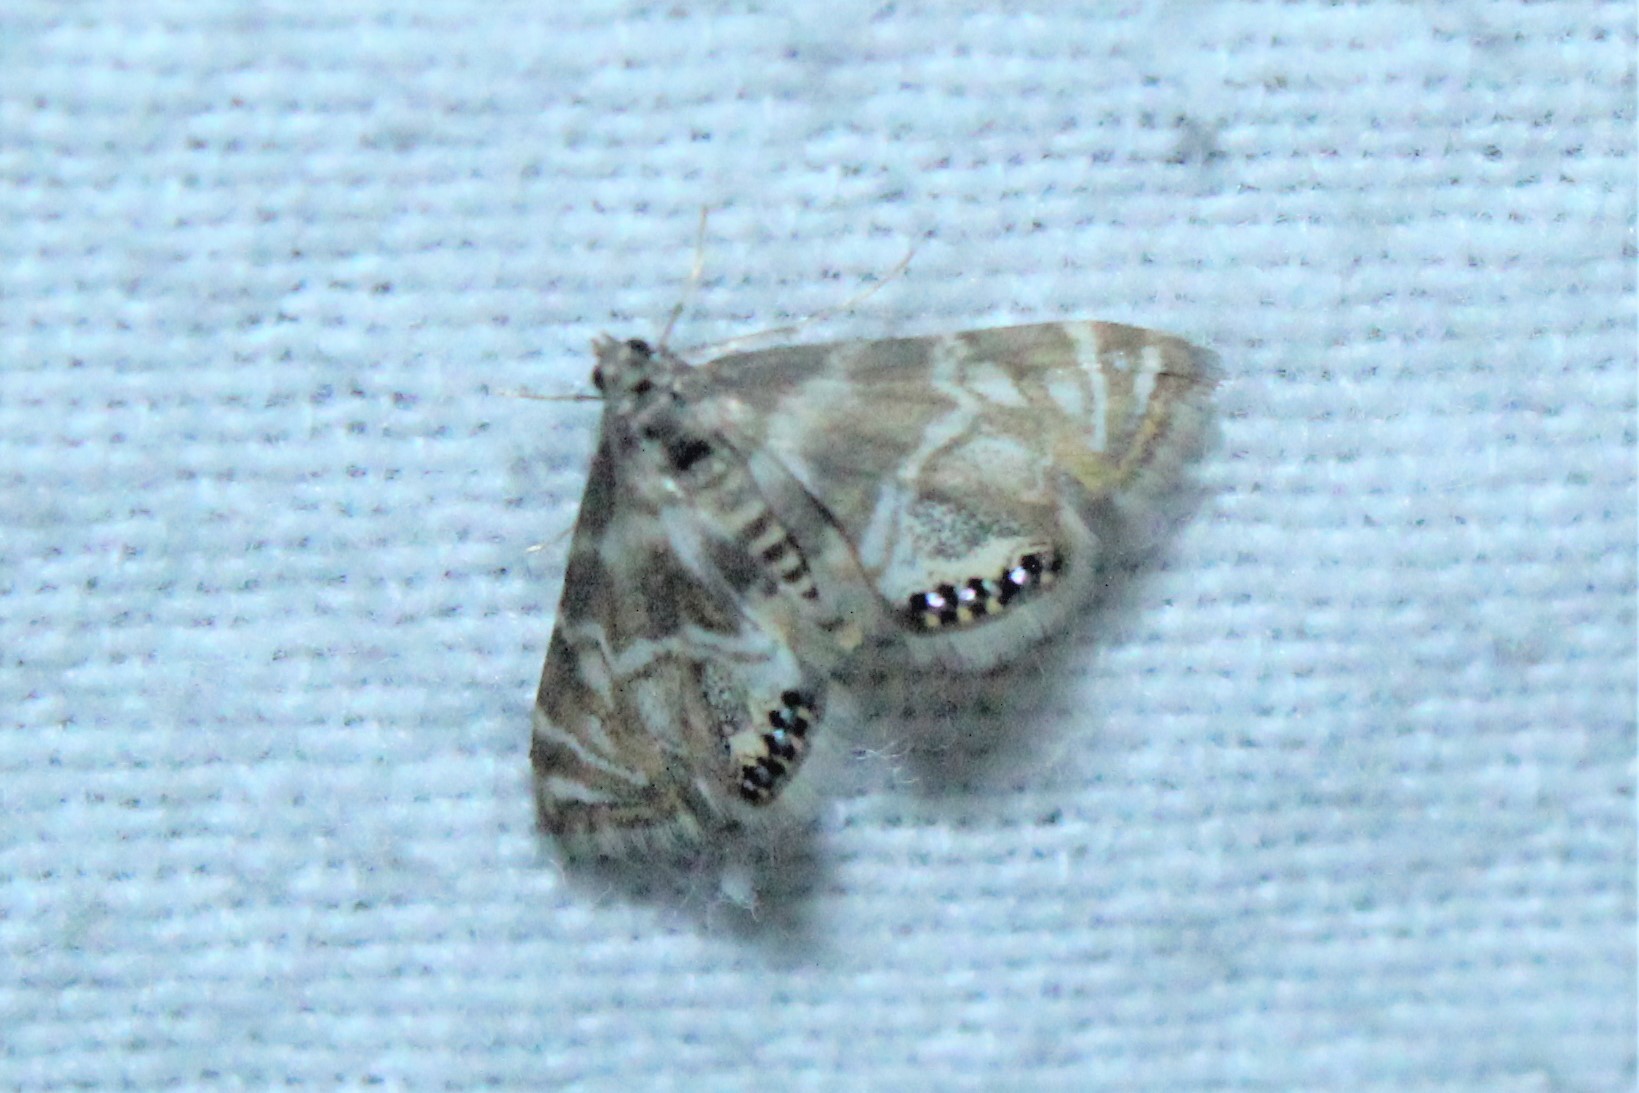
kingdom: Animalia
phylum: Arthropoda
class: Insecta
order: Lepidoptera
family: Crambidae
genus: Petrophila
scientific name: Petrophila canadensis
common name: Canadian petrophila
